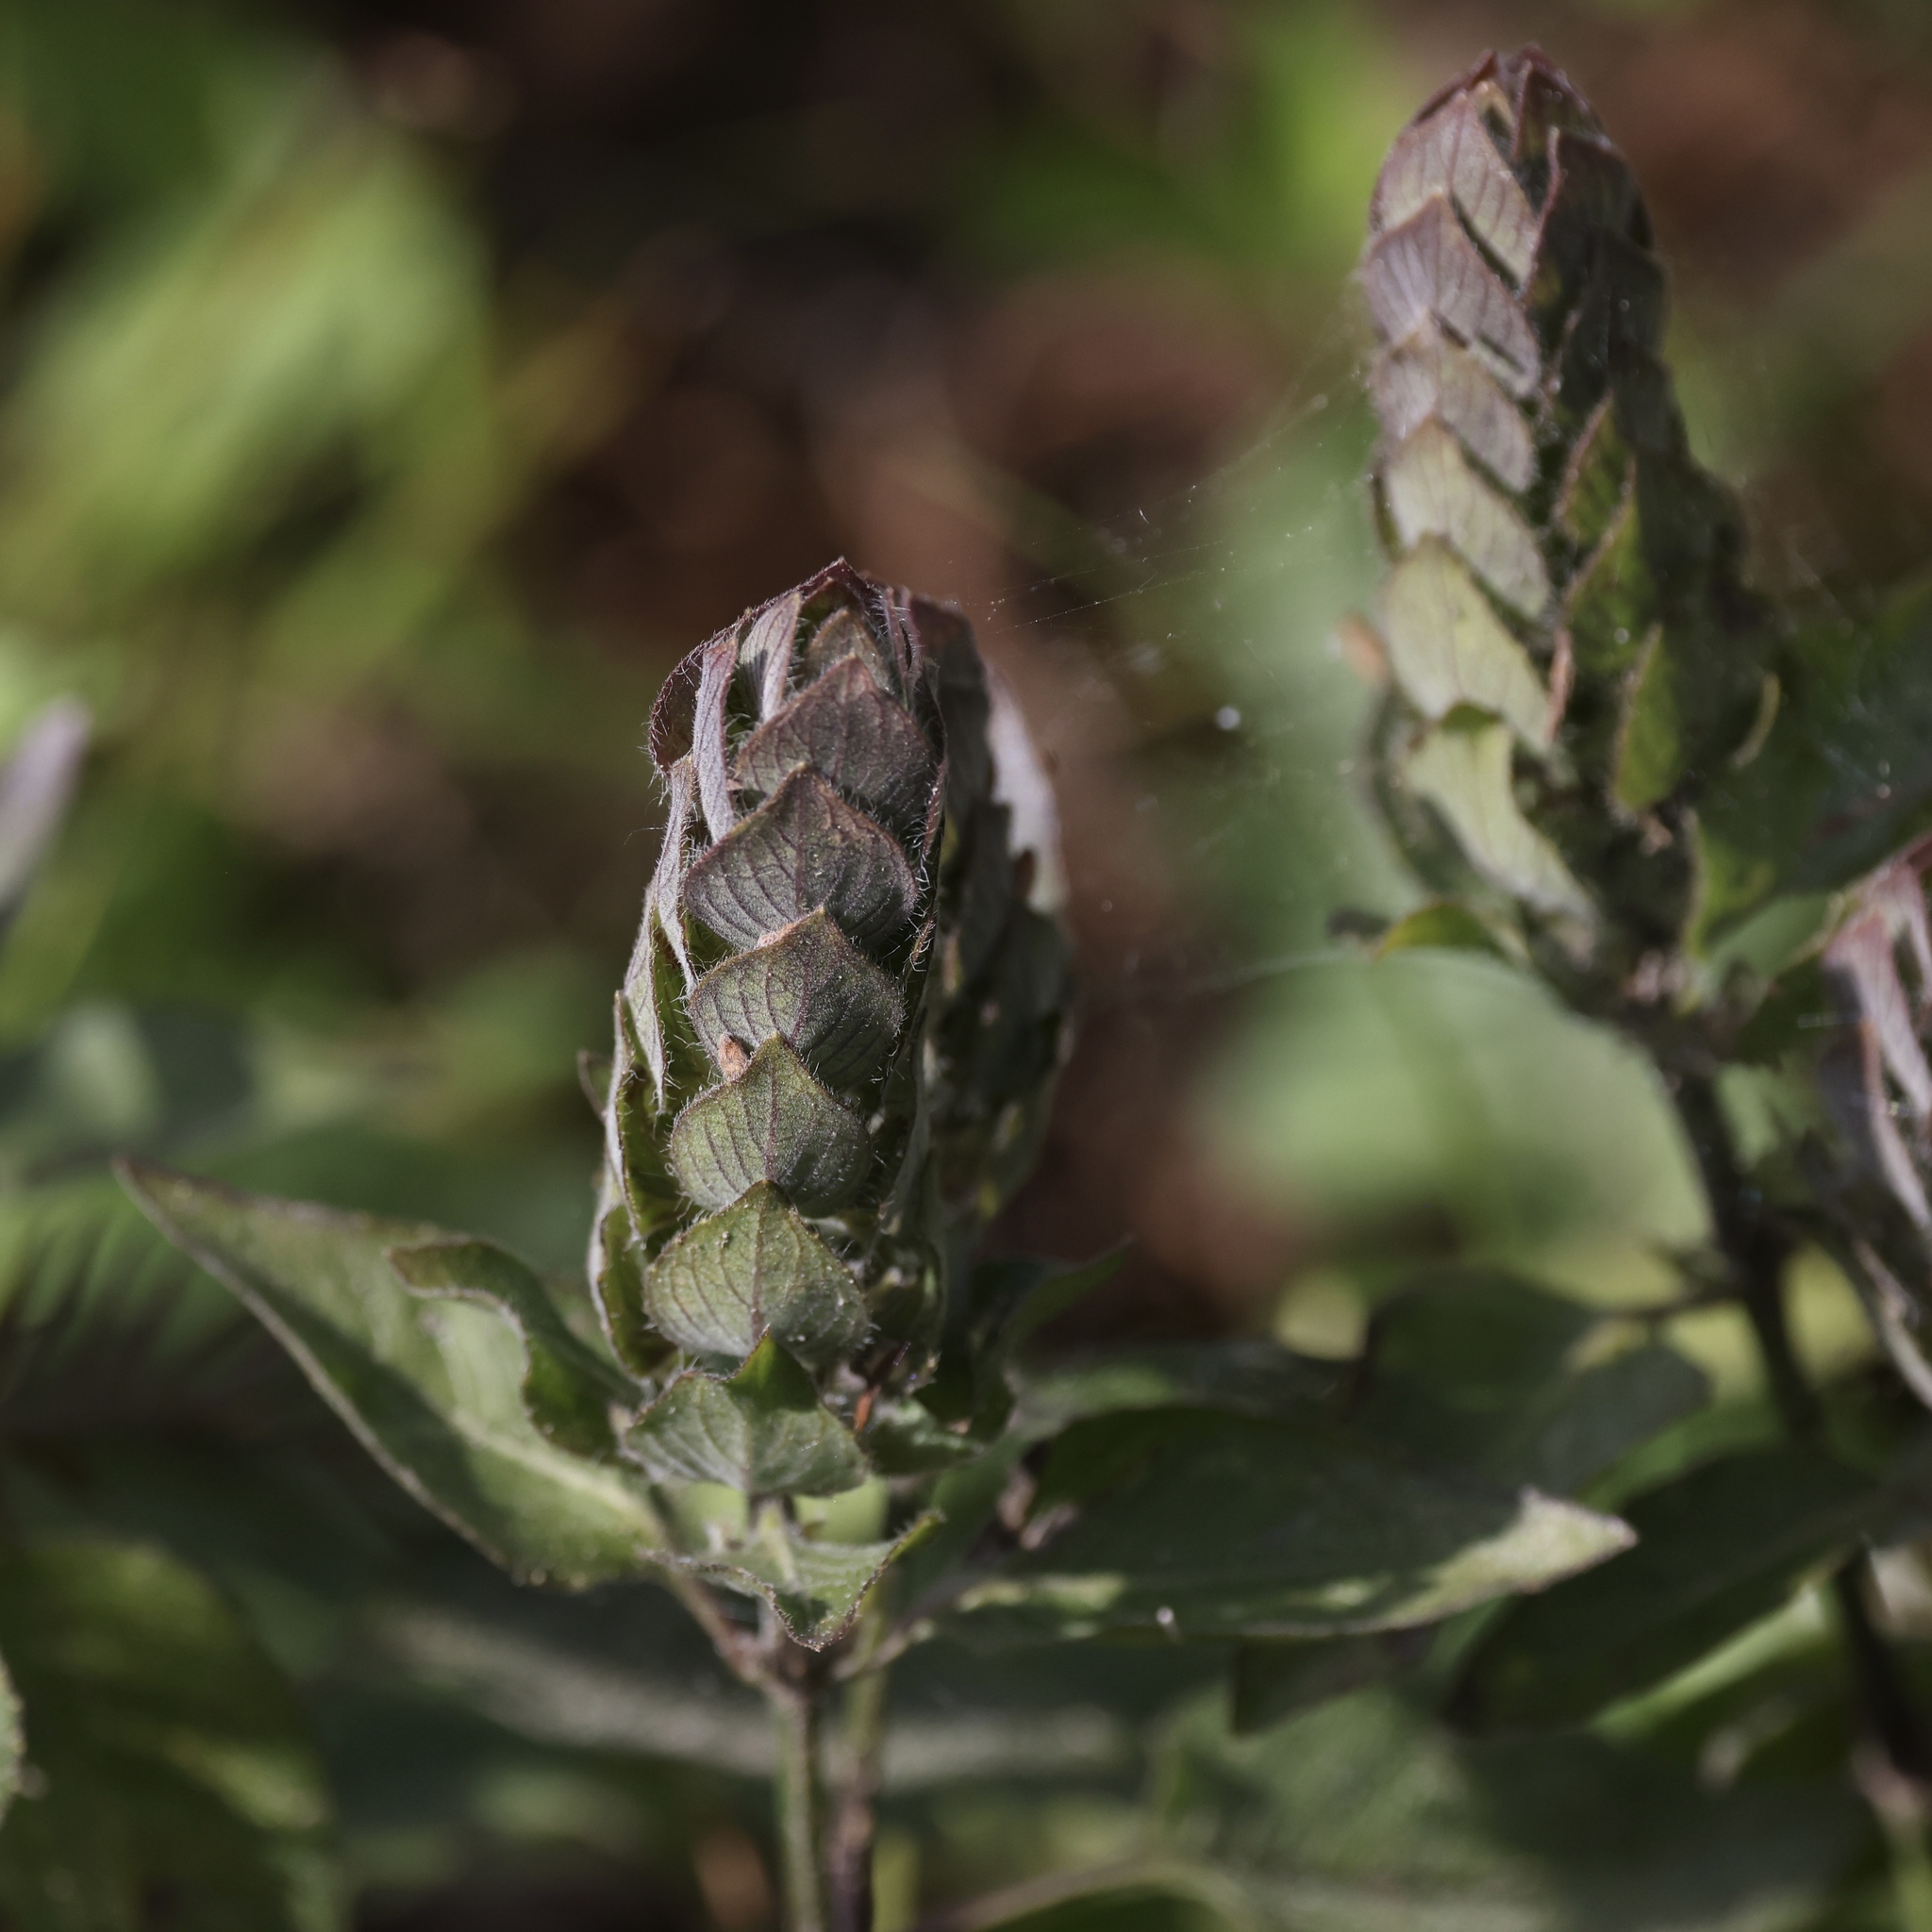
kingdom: Plantae
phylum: Tracheophyta
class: Magnoliopsida
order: Lamiales
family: Acanthaceae
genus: Ruellia
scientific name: Ruellia blechum
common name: Browne's blechum
